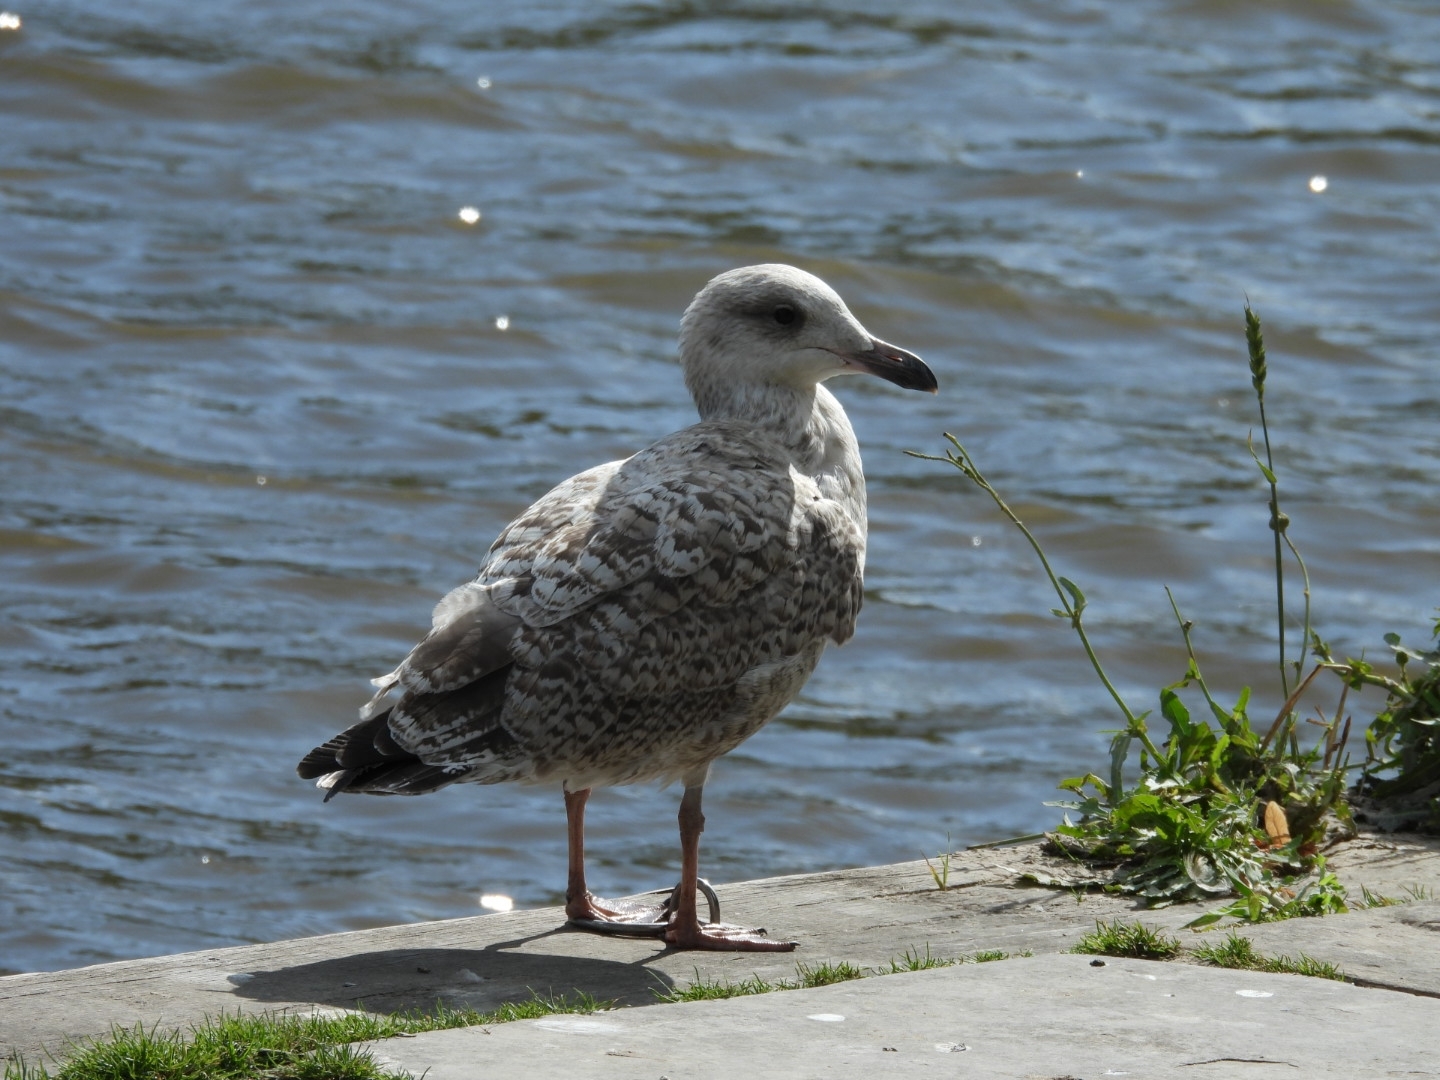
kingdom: Animalia
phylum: Chordata
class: Aves
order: Charadriiformes
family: Laridae
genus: Larus
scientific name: Larus argentatus
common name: Herring gull
